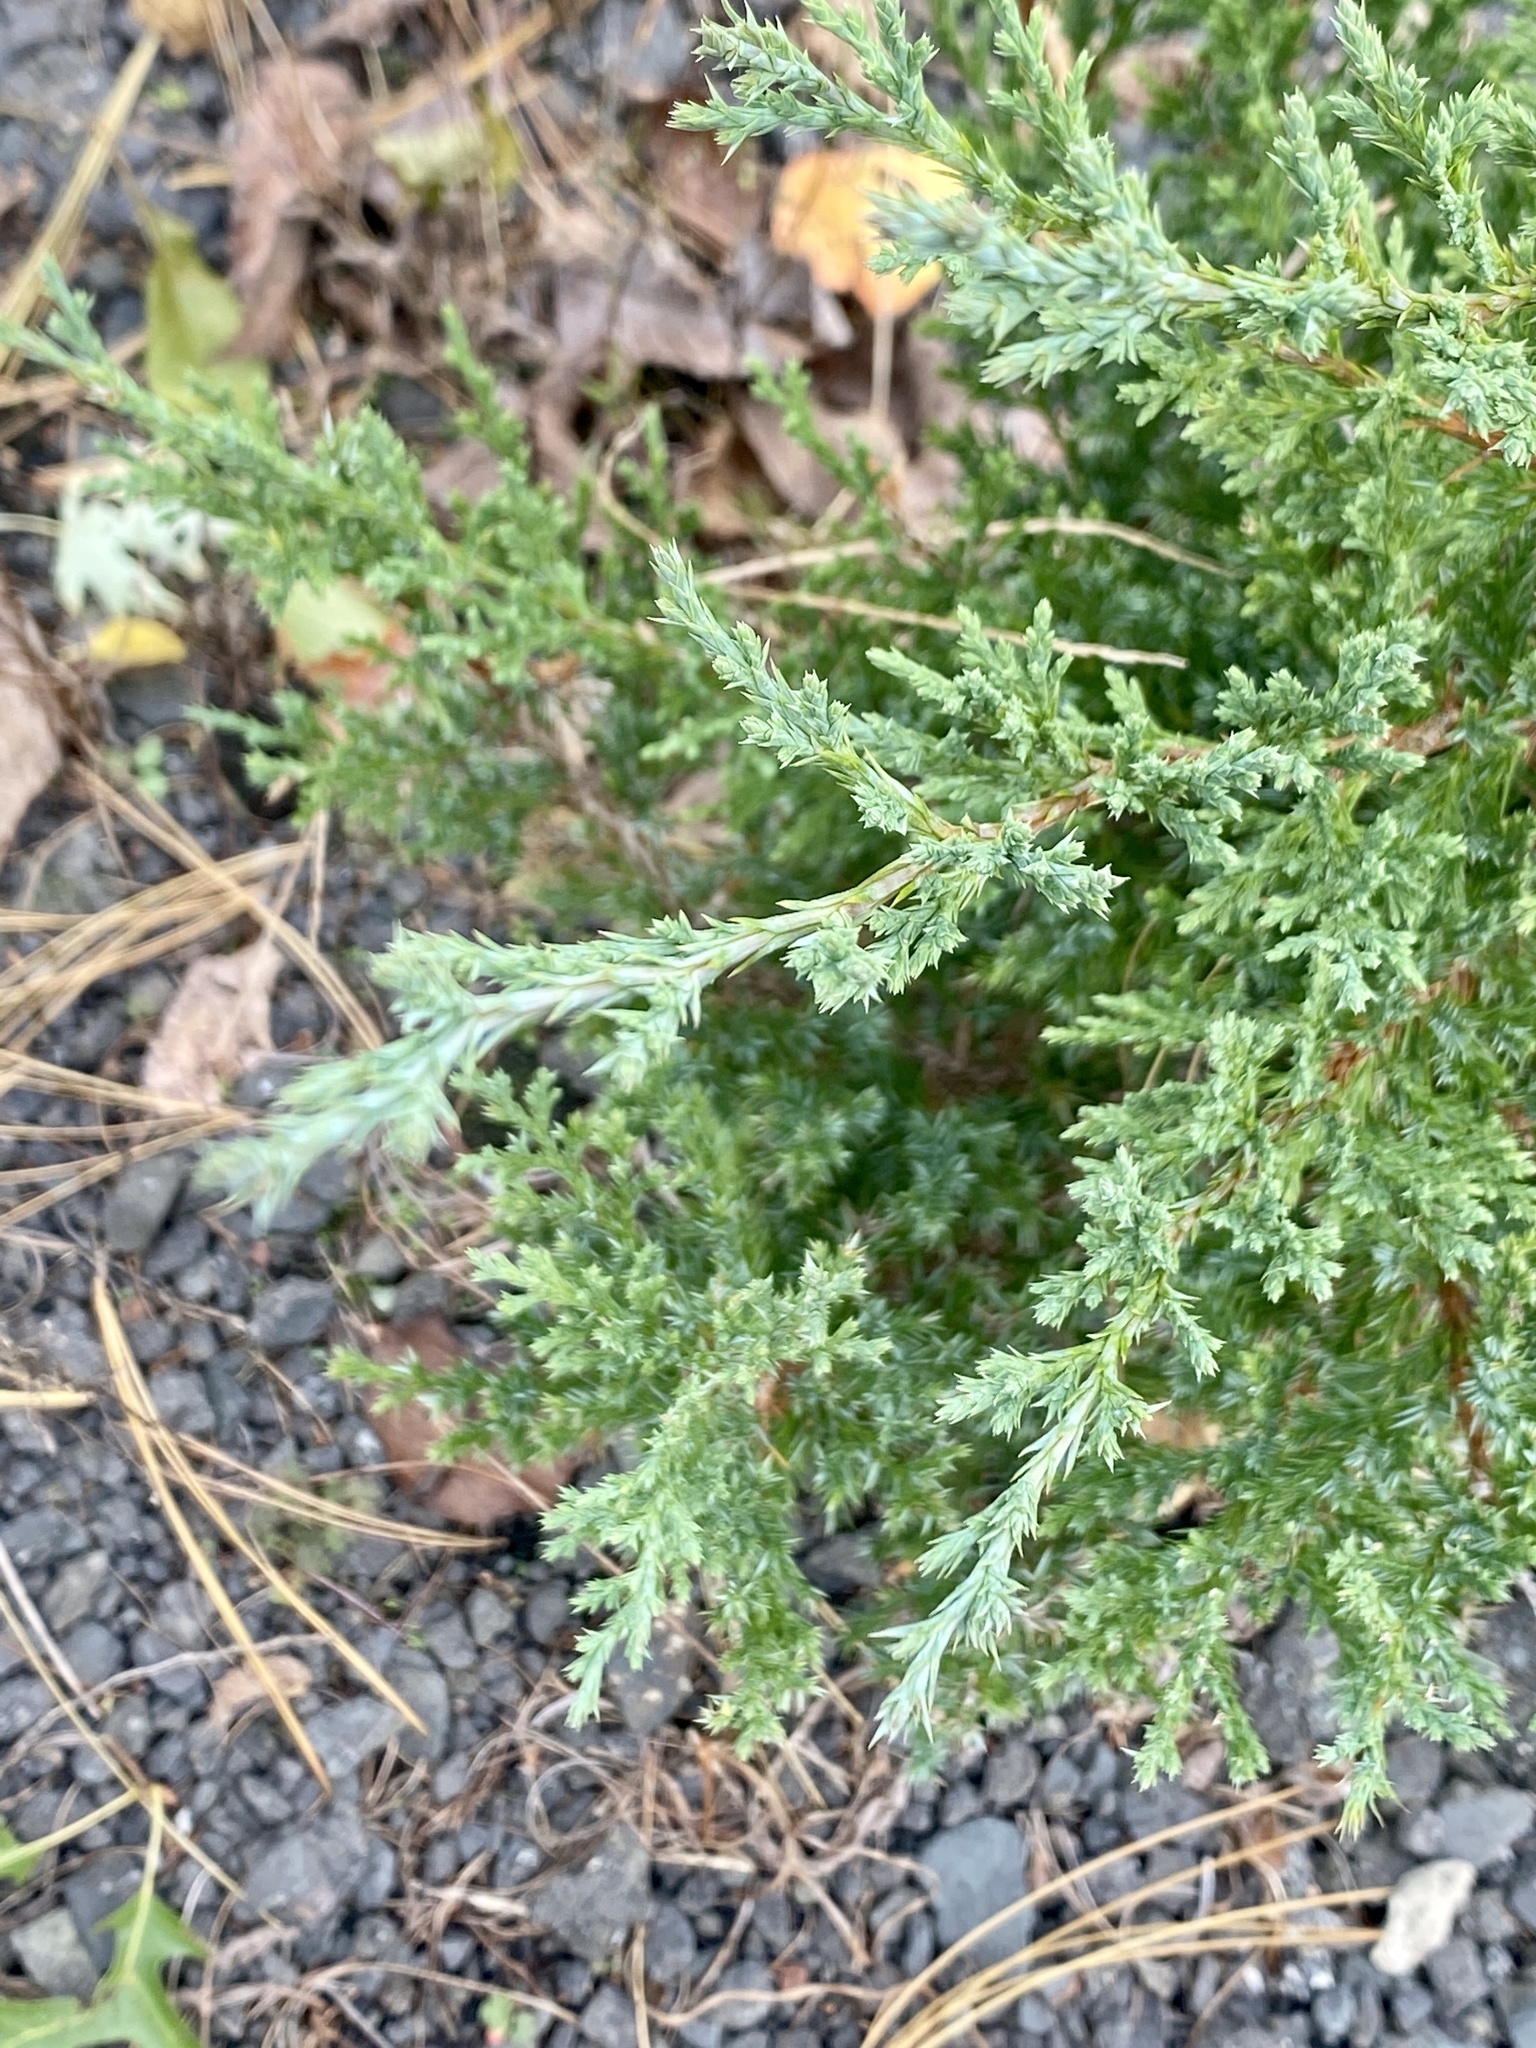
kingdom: Plantae
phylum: Tracheophyta
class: Pinopsida
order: Pinales
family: Cupressaceae
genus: Juniperus
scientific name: Juniperus virginiana
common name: Red juniper
